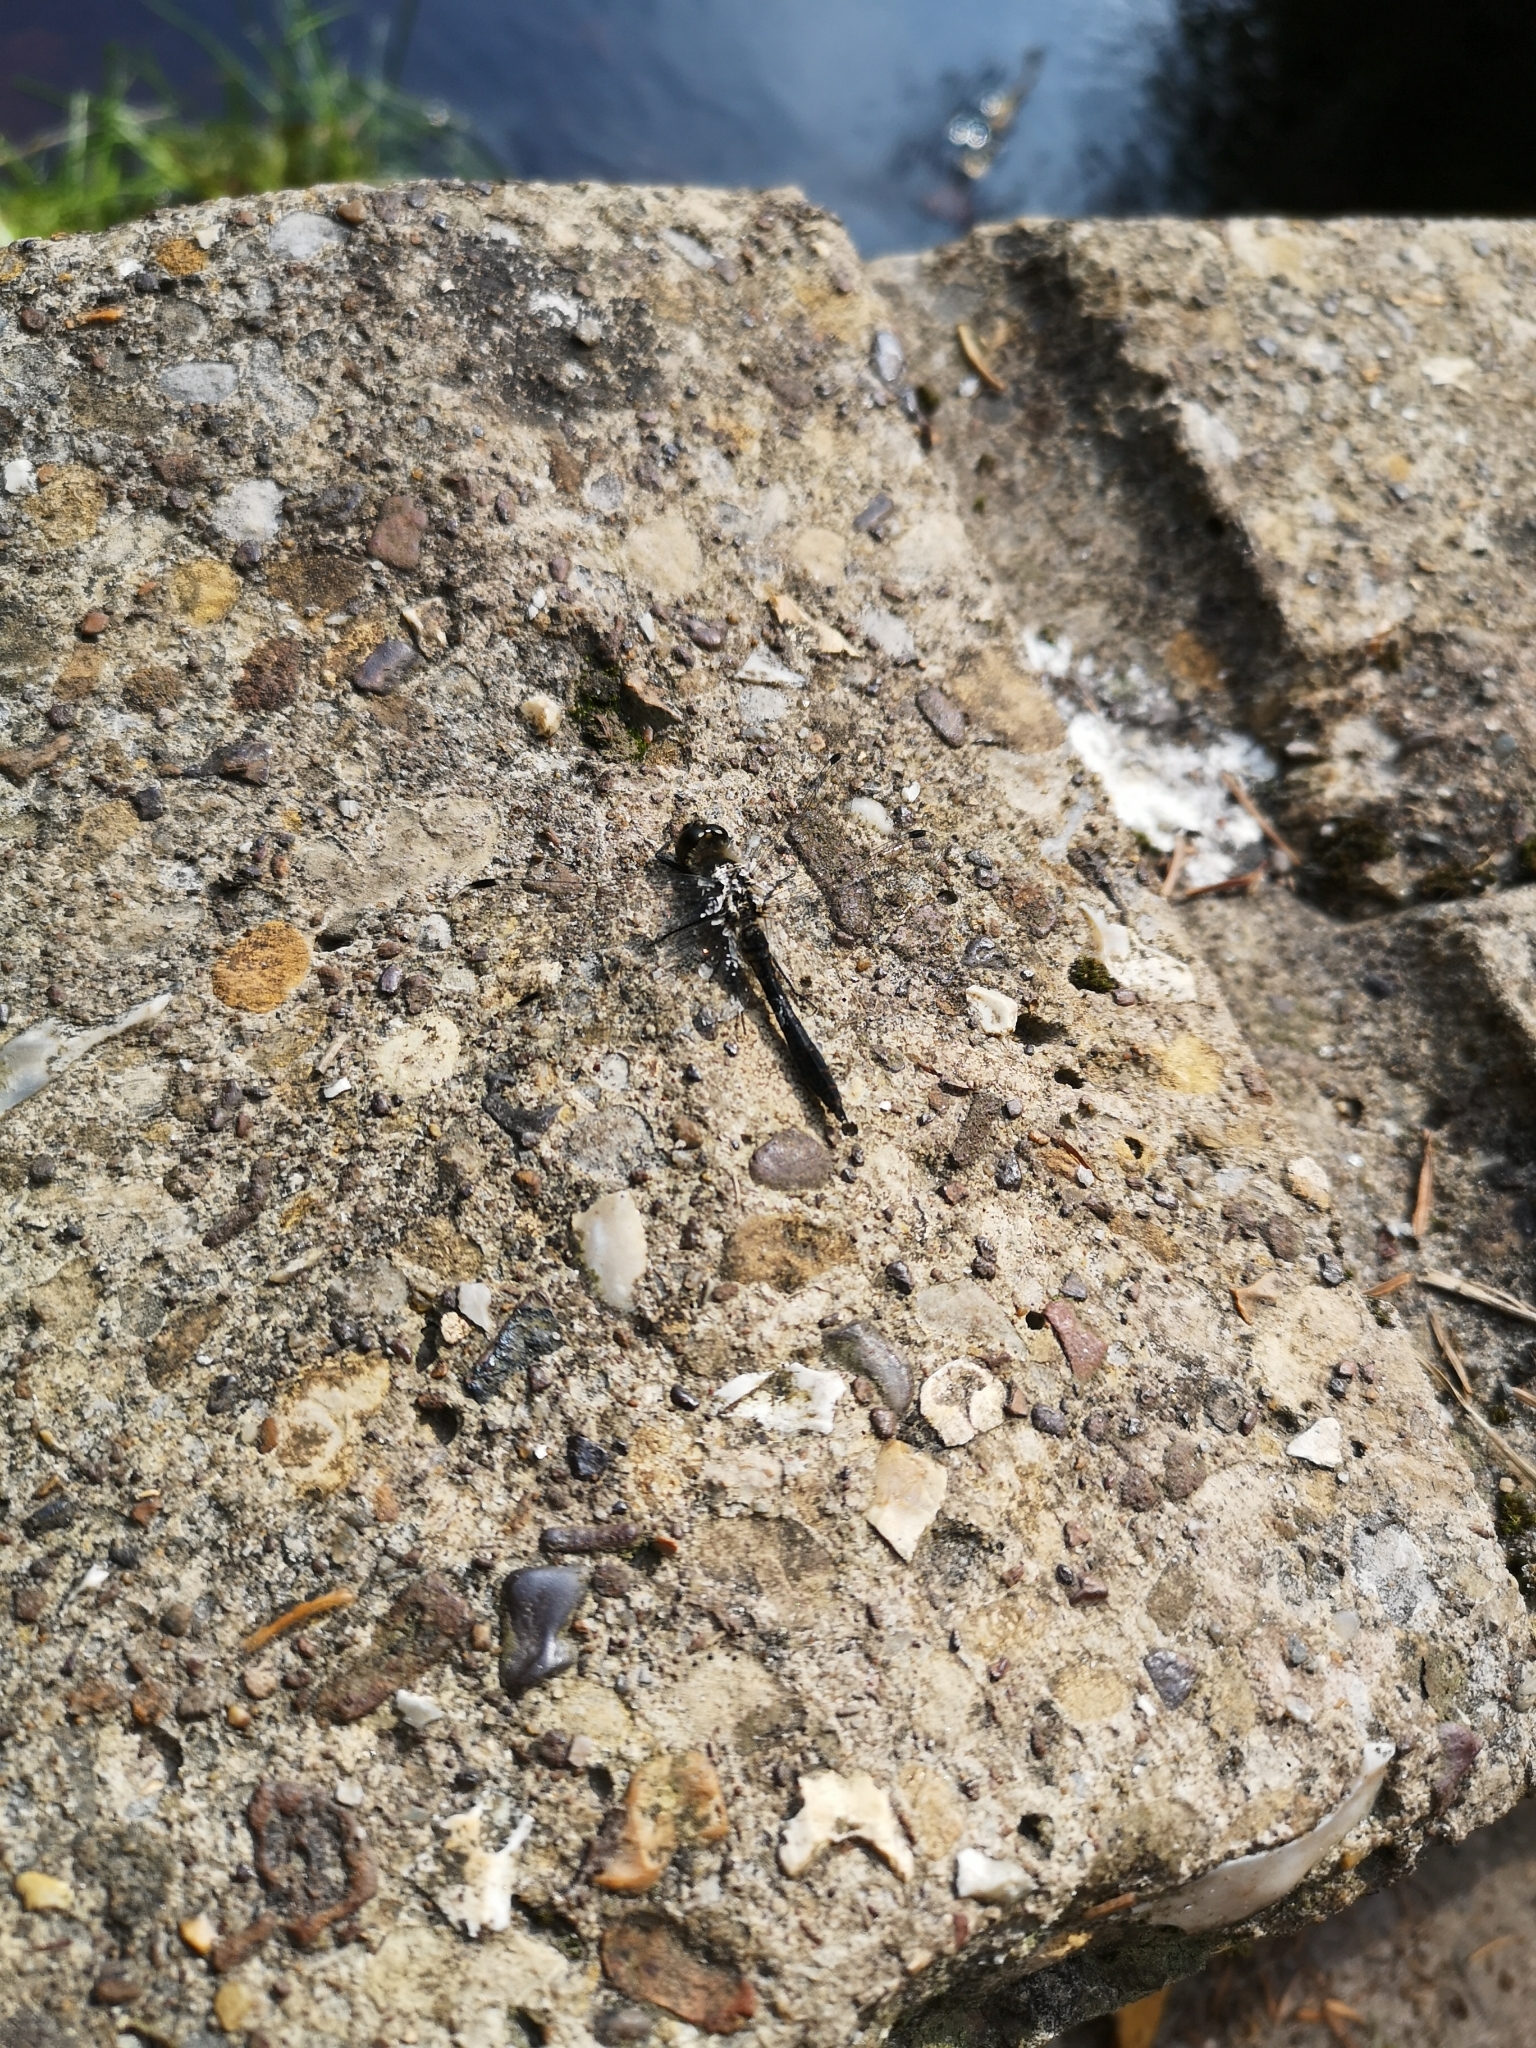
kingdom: Animalia
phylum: Arthropoda
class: Insecta
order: Odonata
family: Libellulidae
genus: Sympetrum
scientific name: Sympetrum danae
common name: Black darter
